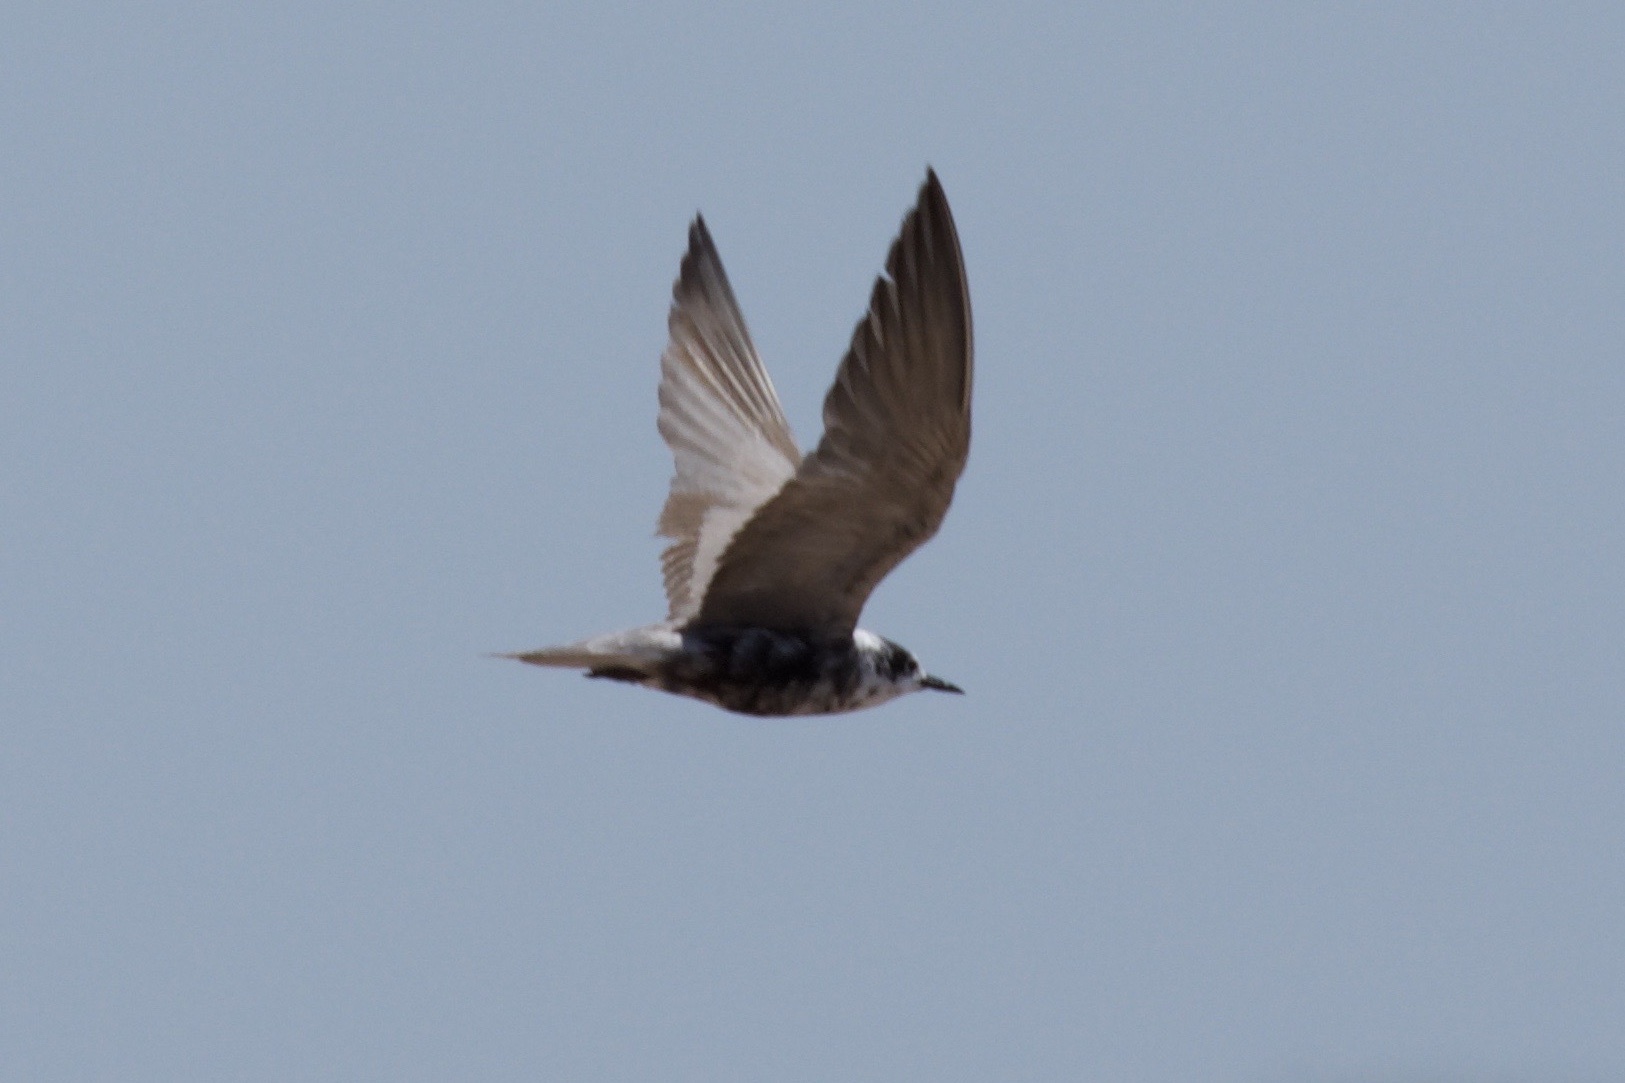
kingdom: Animalia
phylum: Chordata
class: Aves
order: Charadriiformes
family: Laridae
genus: Chlidonias
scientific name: Chlidonias niger
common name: Black tern
